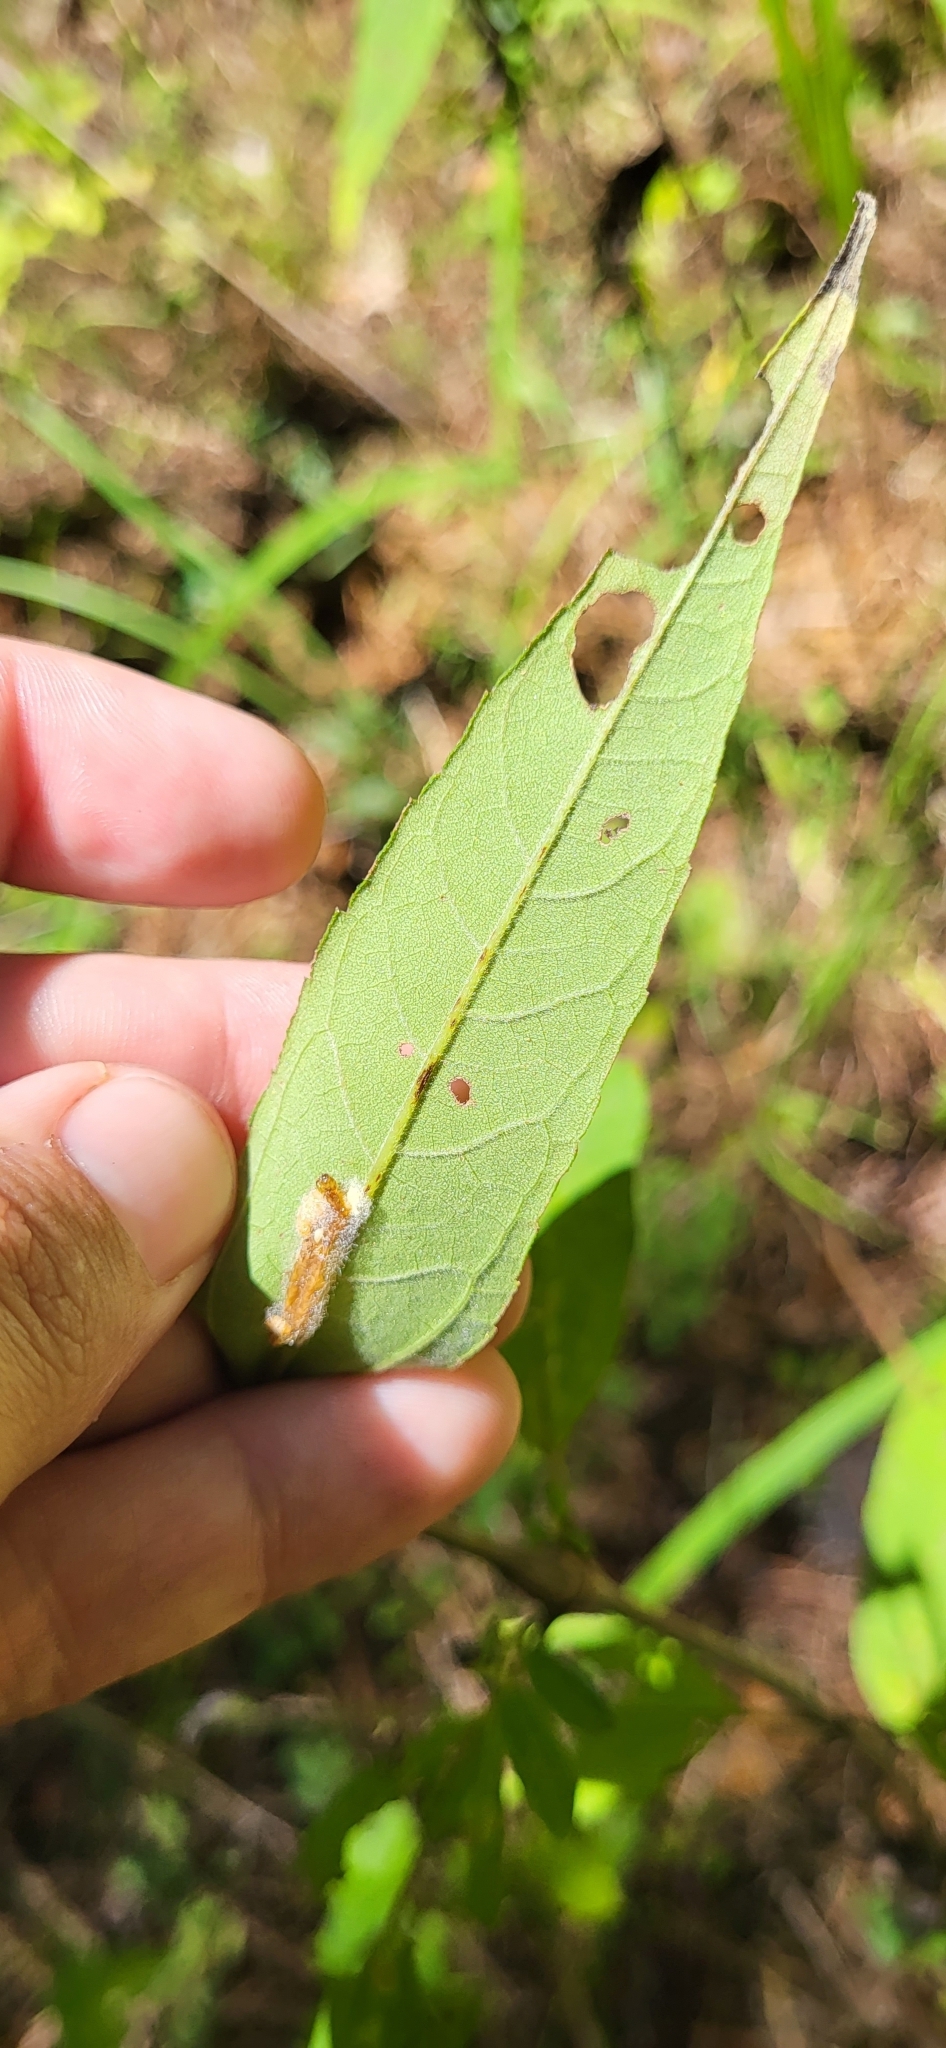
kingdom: Plantae
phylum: Tracheophyta
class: Magnoliopsida
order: Asterales
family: Asteraceae
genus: Helianthus
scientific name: Helianthus microcephalus
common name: Woodland sunflower
